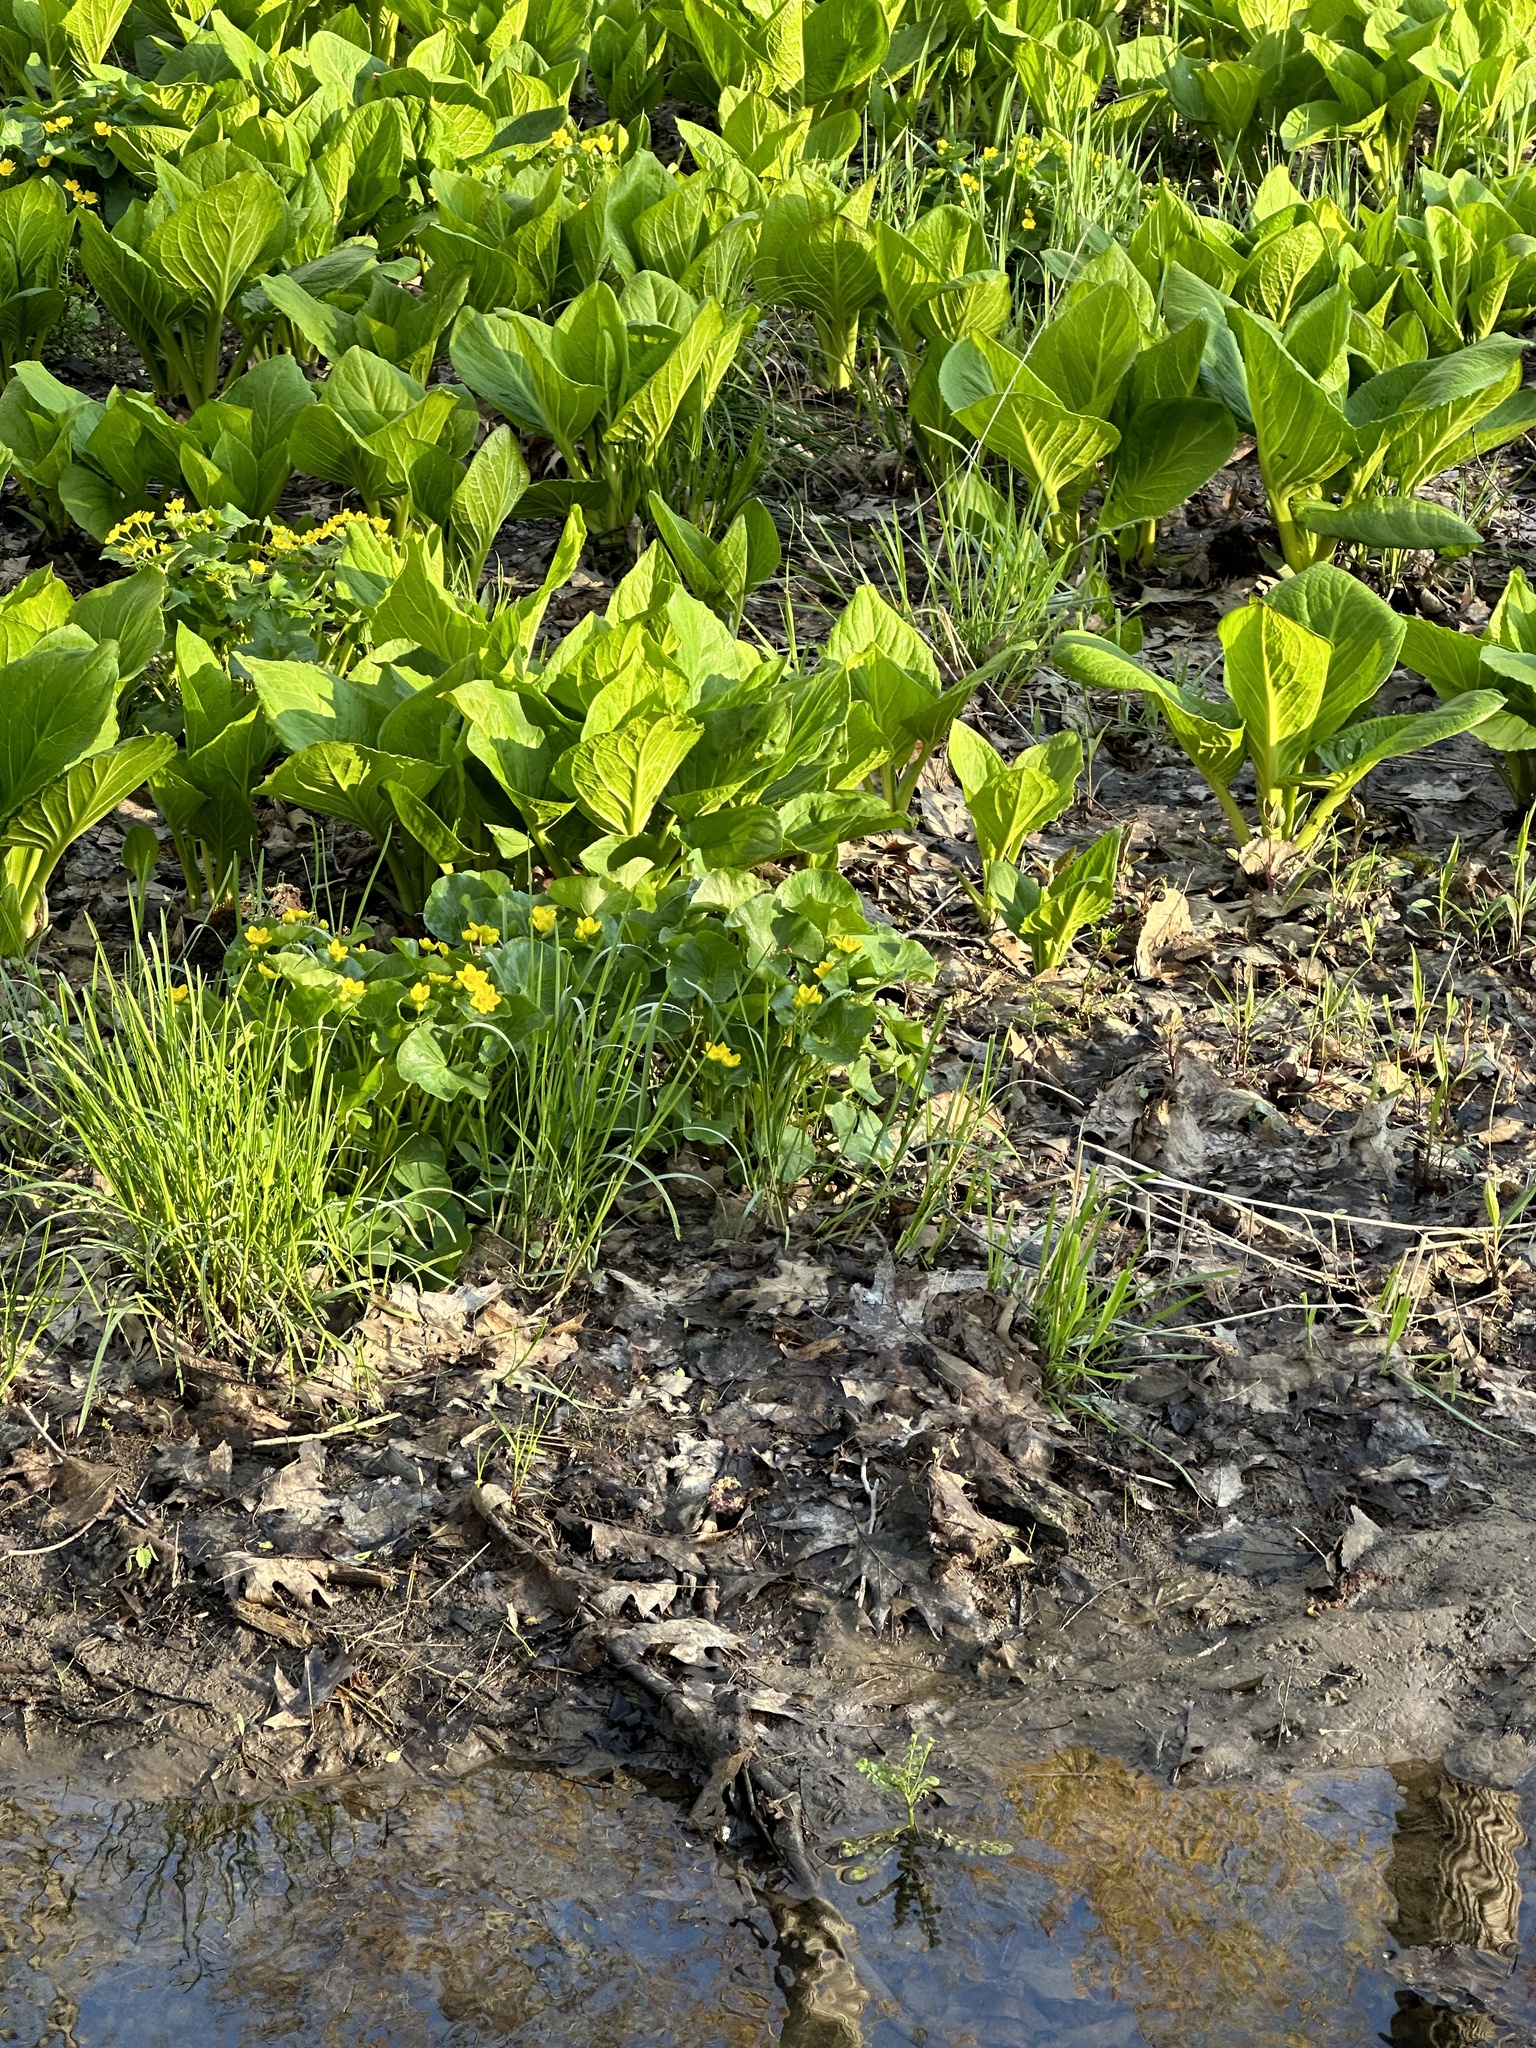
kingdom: Plantae
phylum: Tracheophyta
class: Magnoliopsida
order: Ranunculales
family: Ranunculaceae
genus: Caltha
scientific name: Caltha palustris
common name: Marsh marigold
